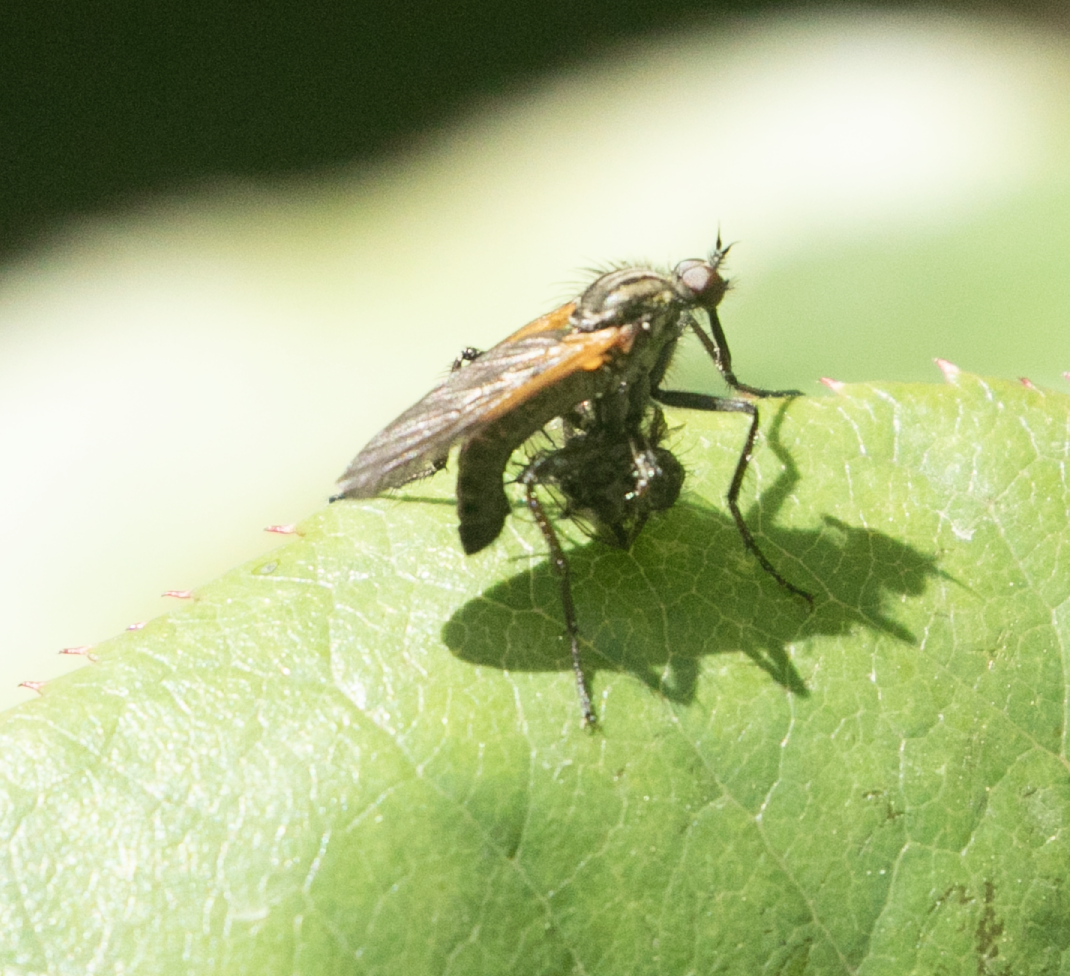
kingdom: Animalia
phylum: Arthropoda
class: Insecta
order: Diptera
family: Empididae
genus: Empis
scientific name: Empis tessellata
